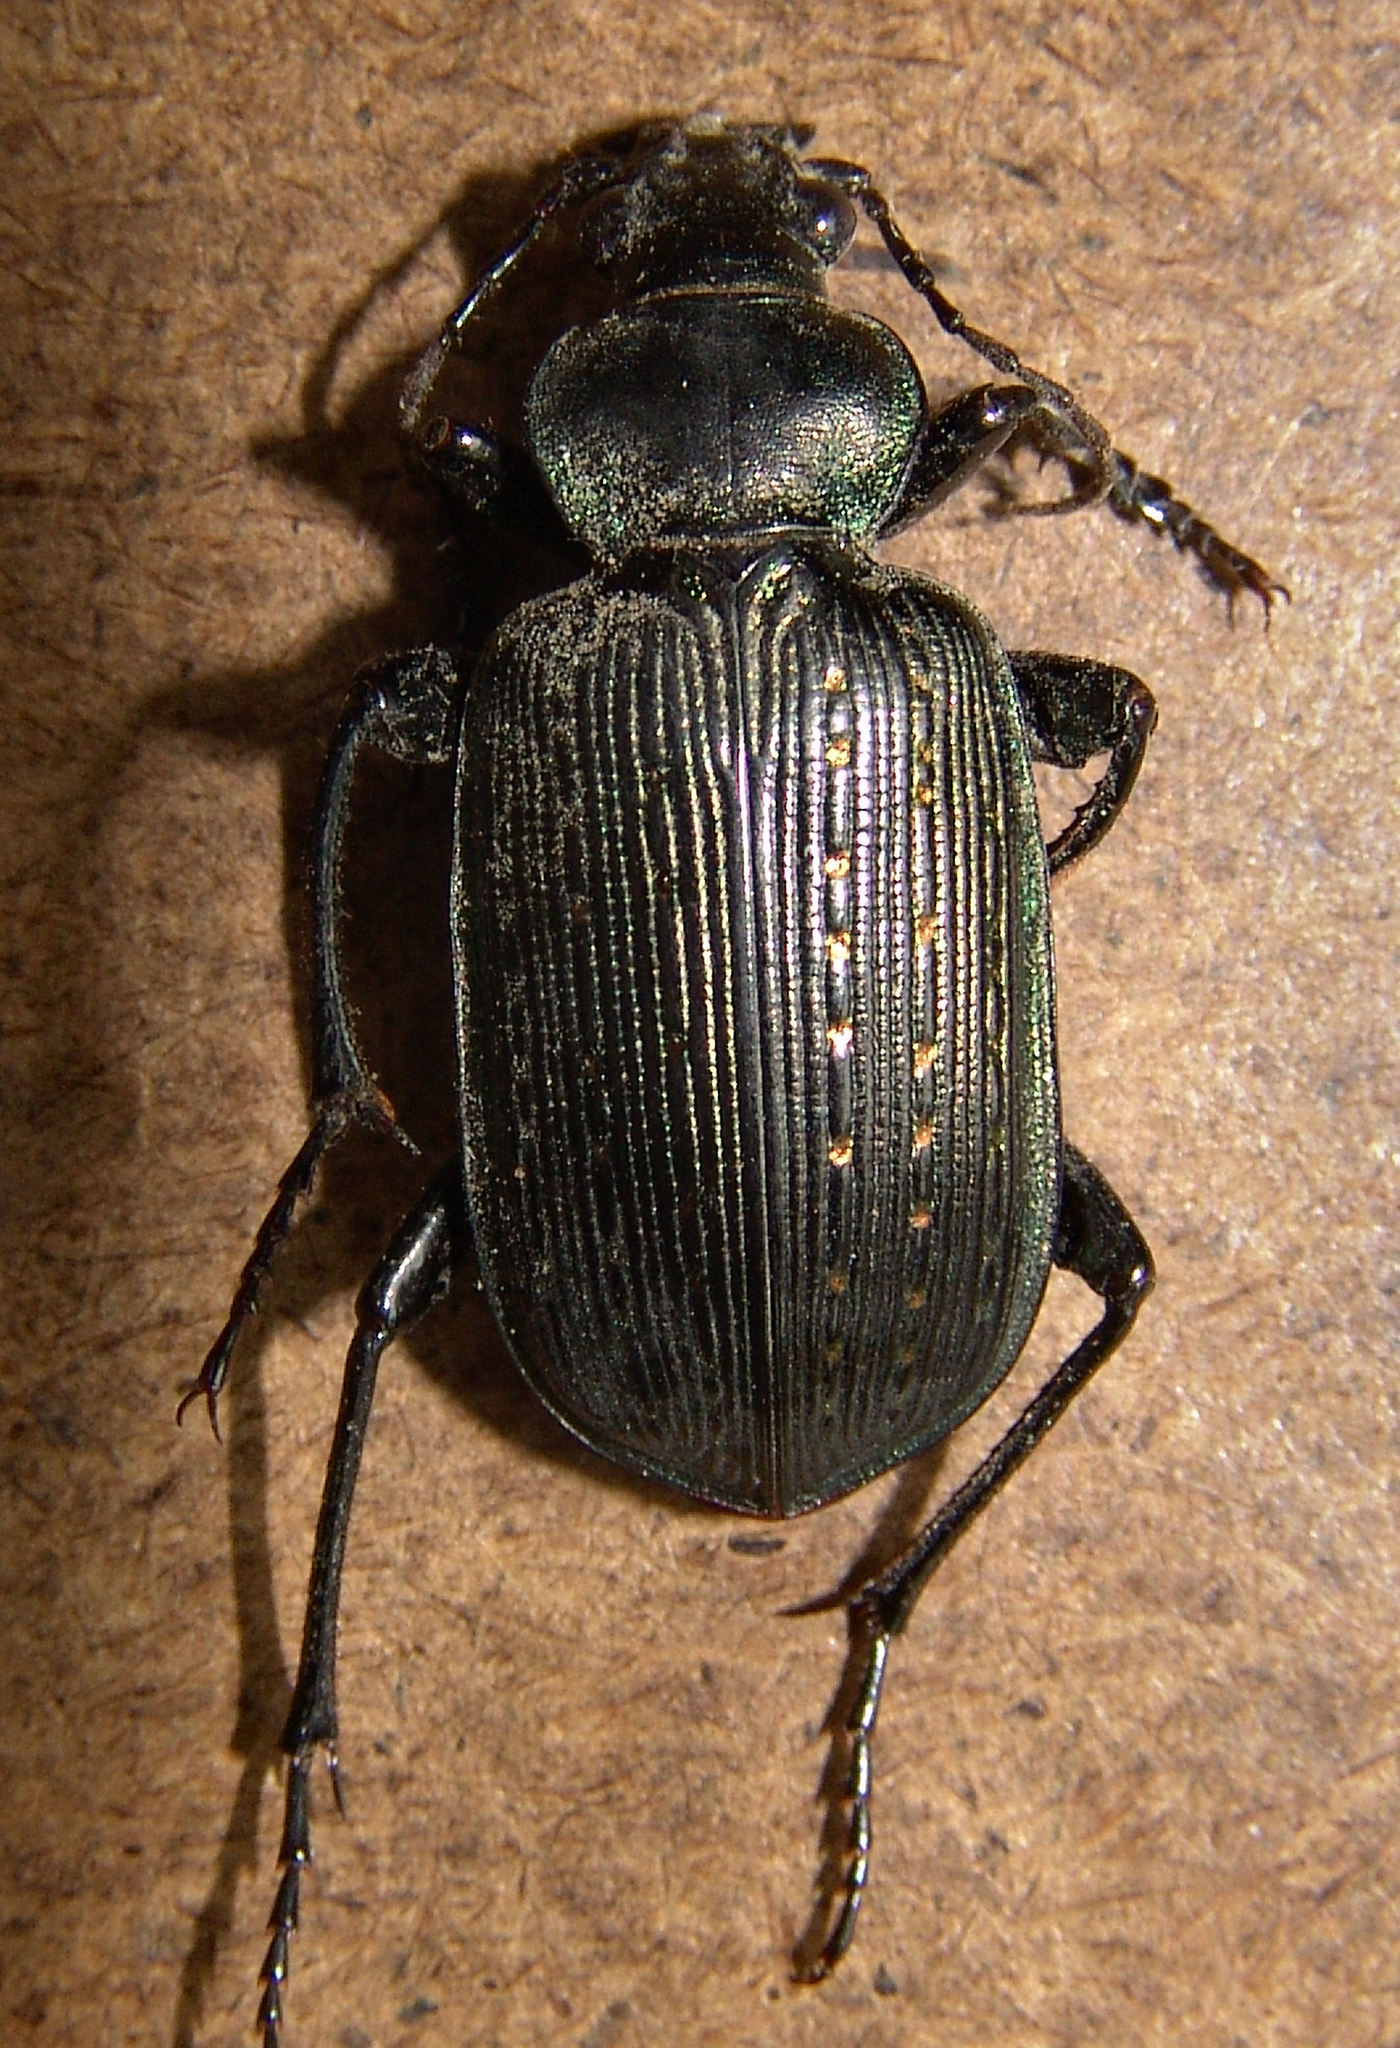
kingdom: Animalia
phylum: Arthropoda
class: Insecta
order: Coleoptera
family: Carabidae
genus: Calosoma
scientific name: Calosoma sayi
